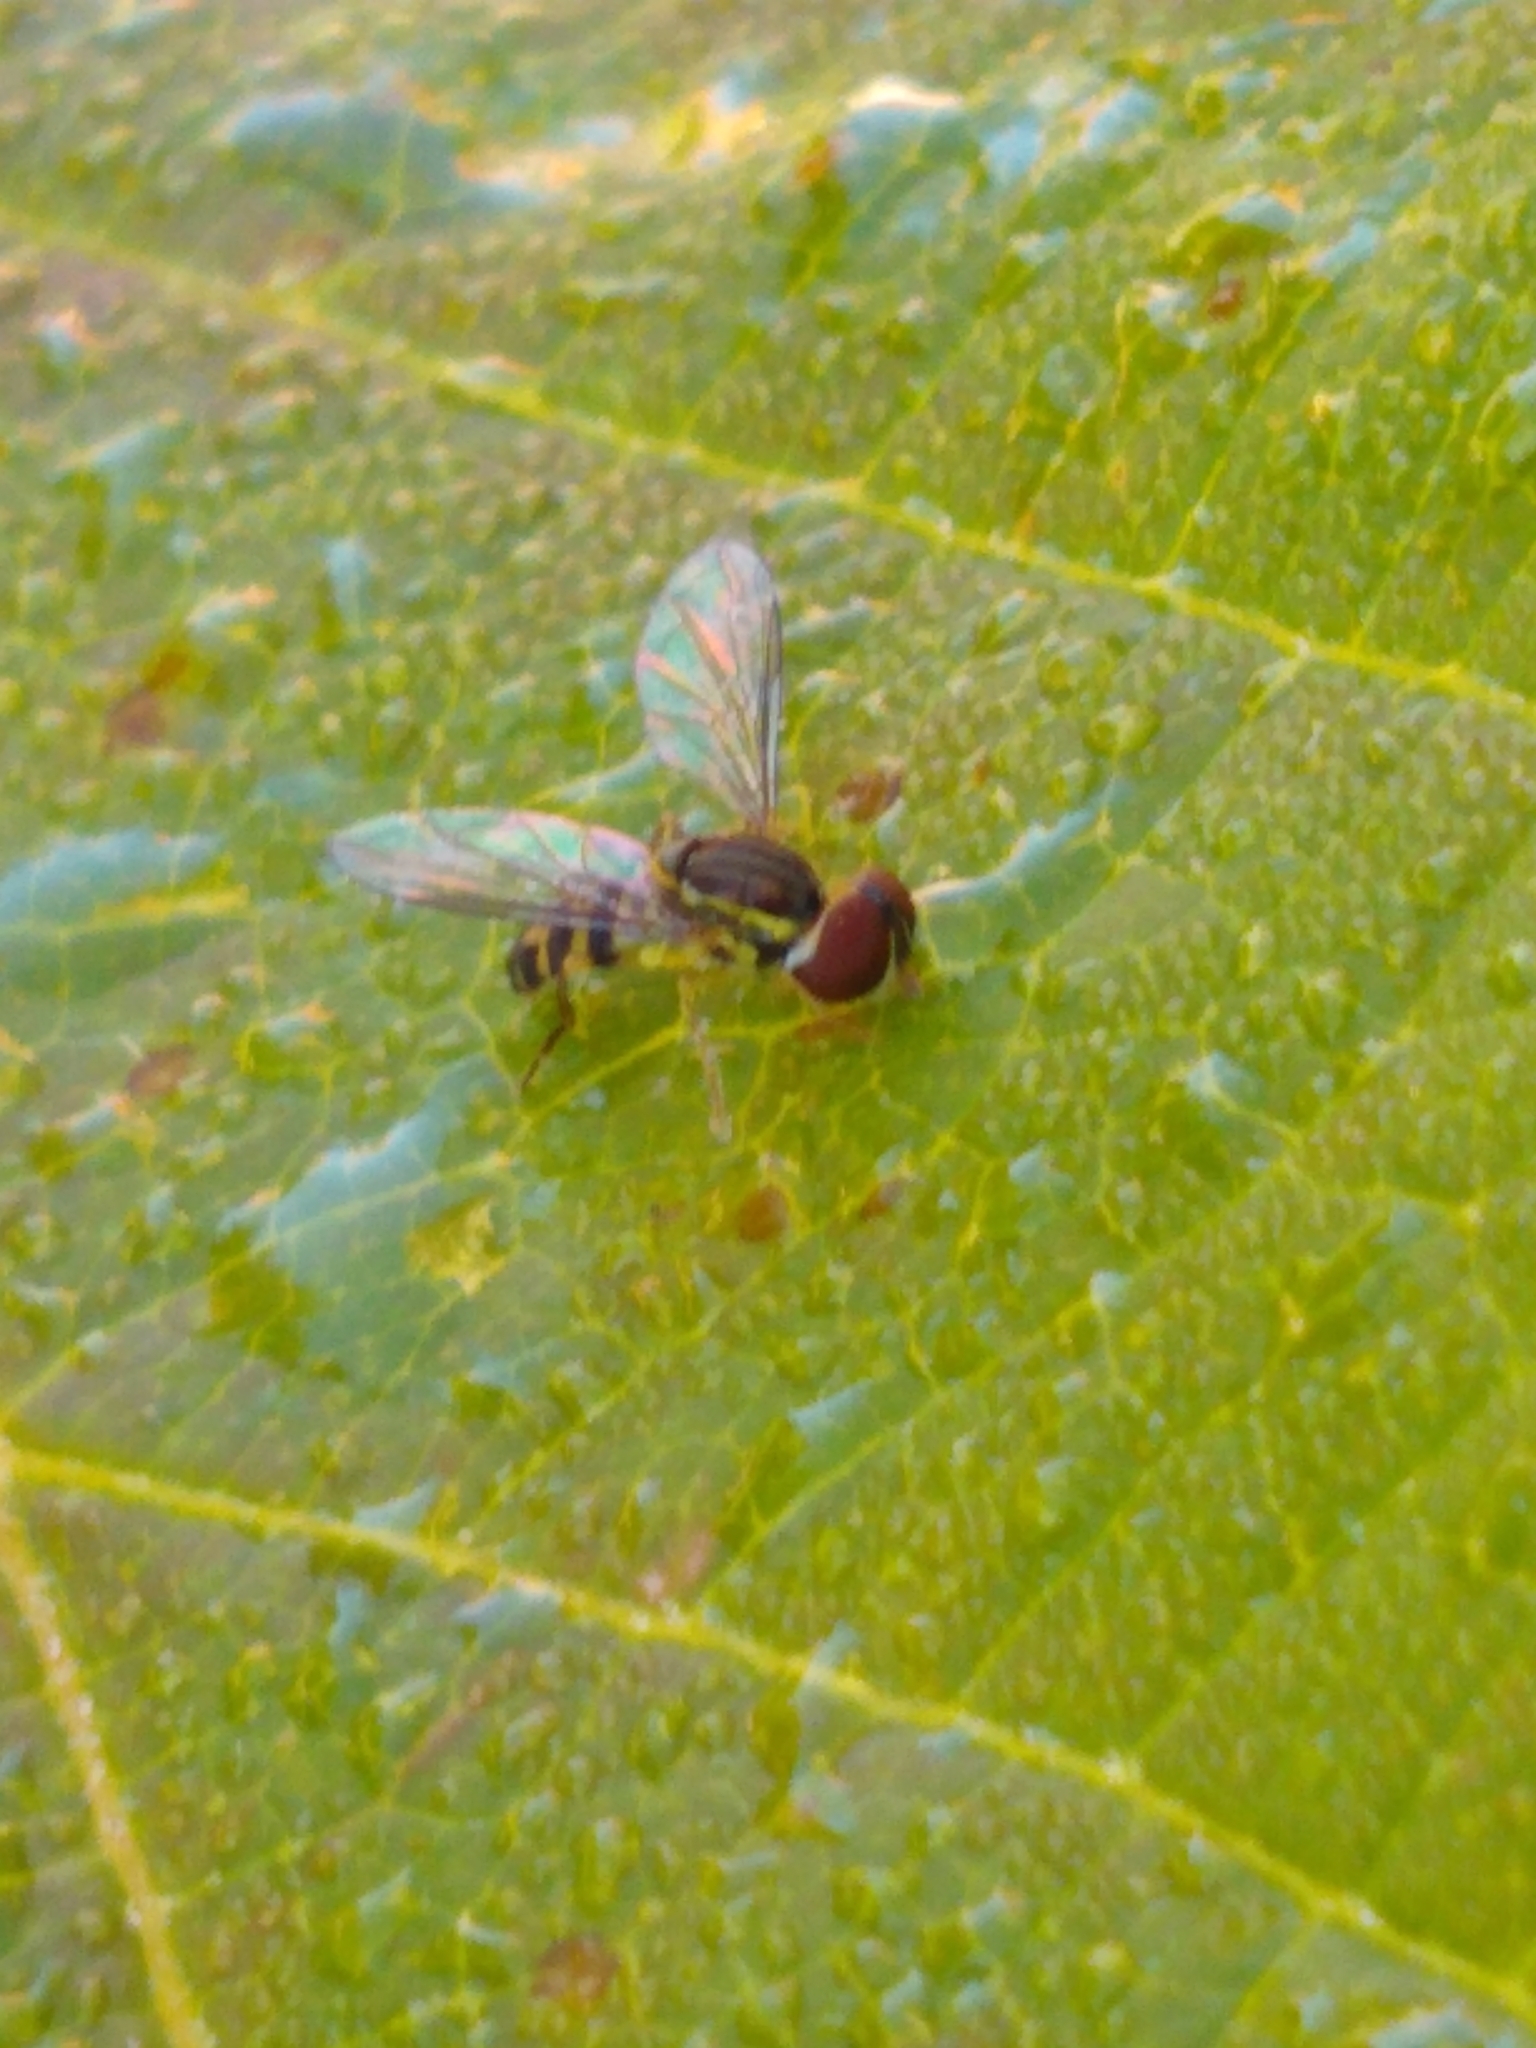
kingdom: Animalia
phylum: Arthropoda
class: Insecta
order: Diptera
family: Syrphidae
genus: Toxomerus
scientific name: Toxomerus geminatus
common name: Eastern calligrapher
